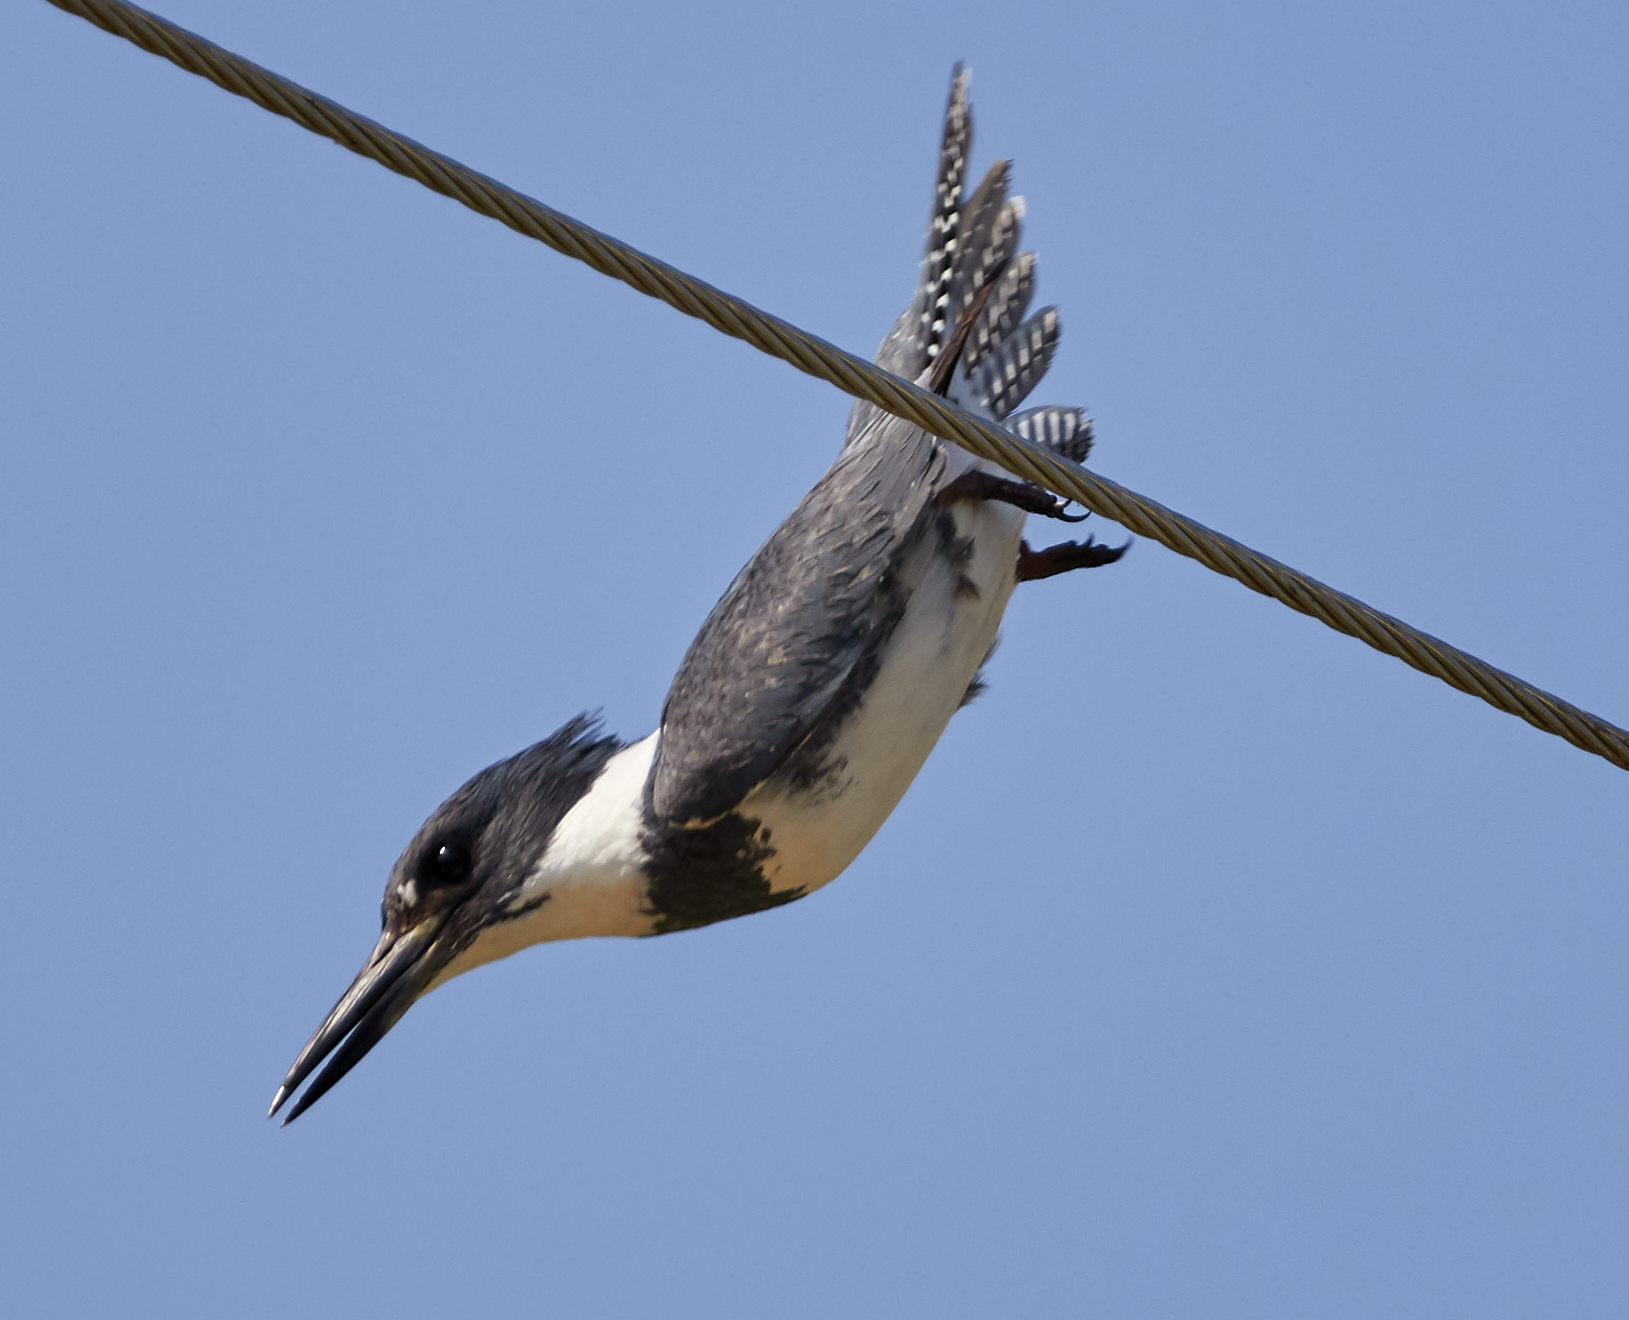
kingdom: Animalia
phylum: Chordata
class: Aves
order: Coraciiformes
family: Alcedinidae
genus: Megaceryle
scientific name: Megaceryle alcyon
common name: Belted kingfisher
